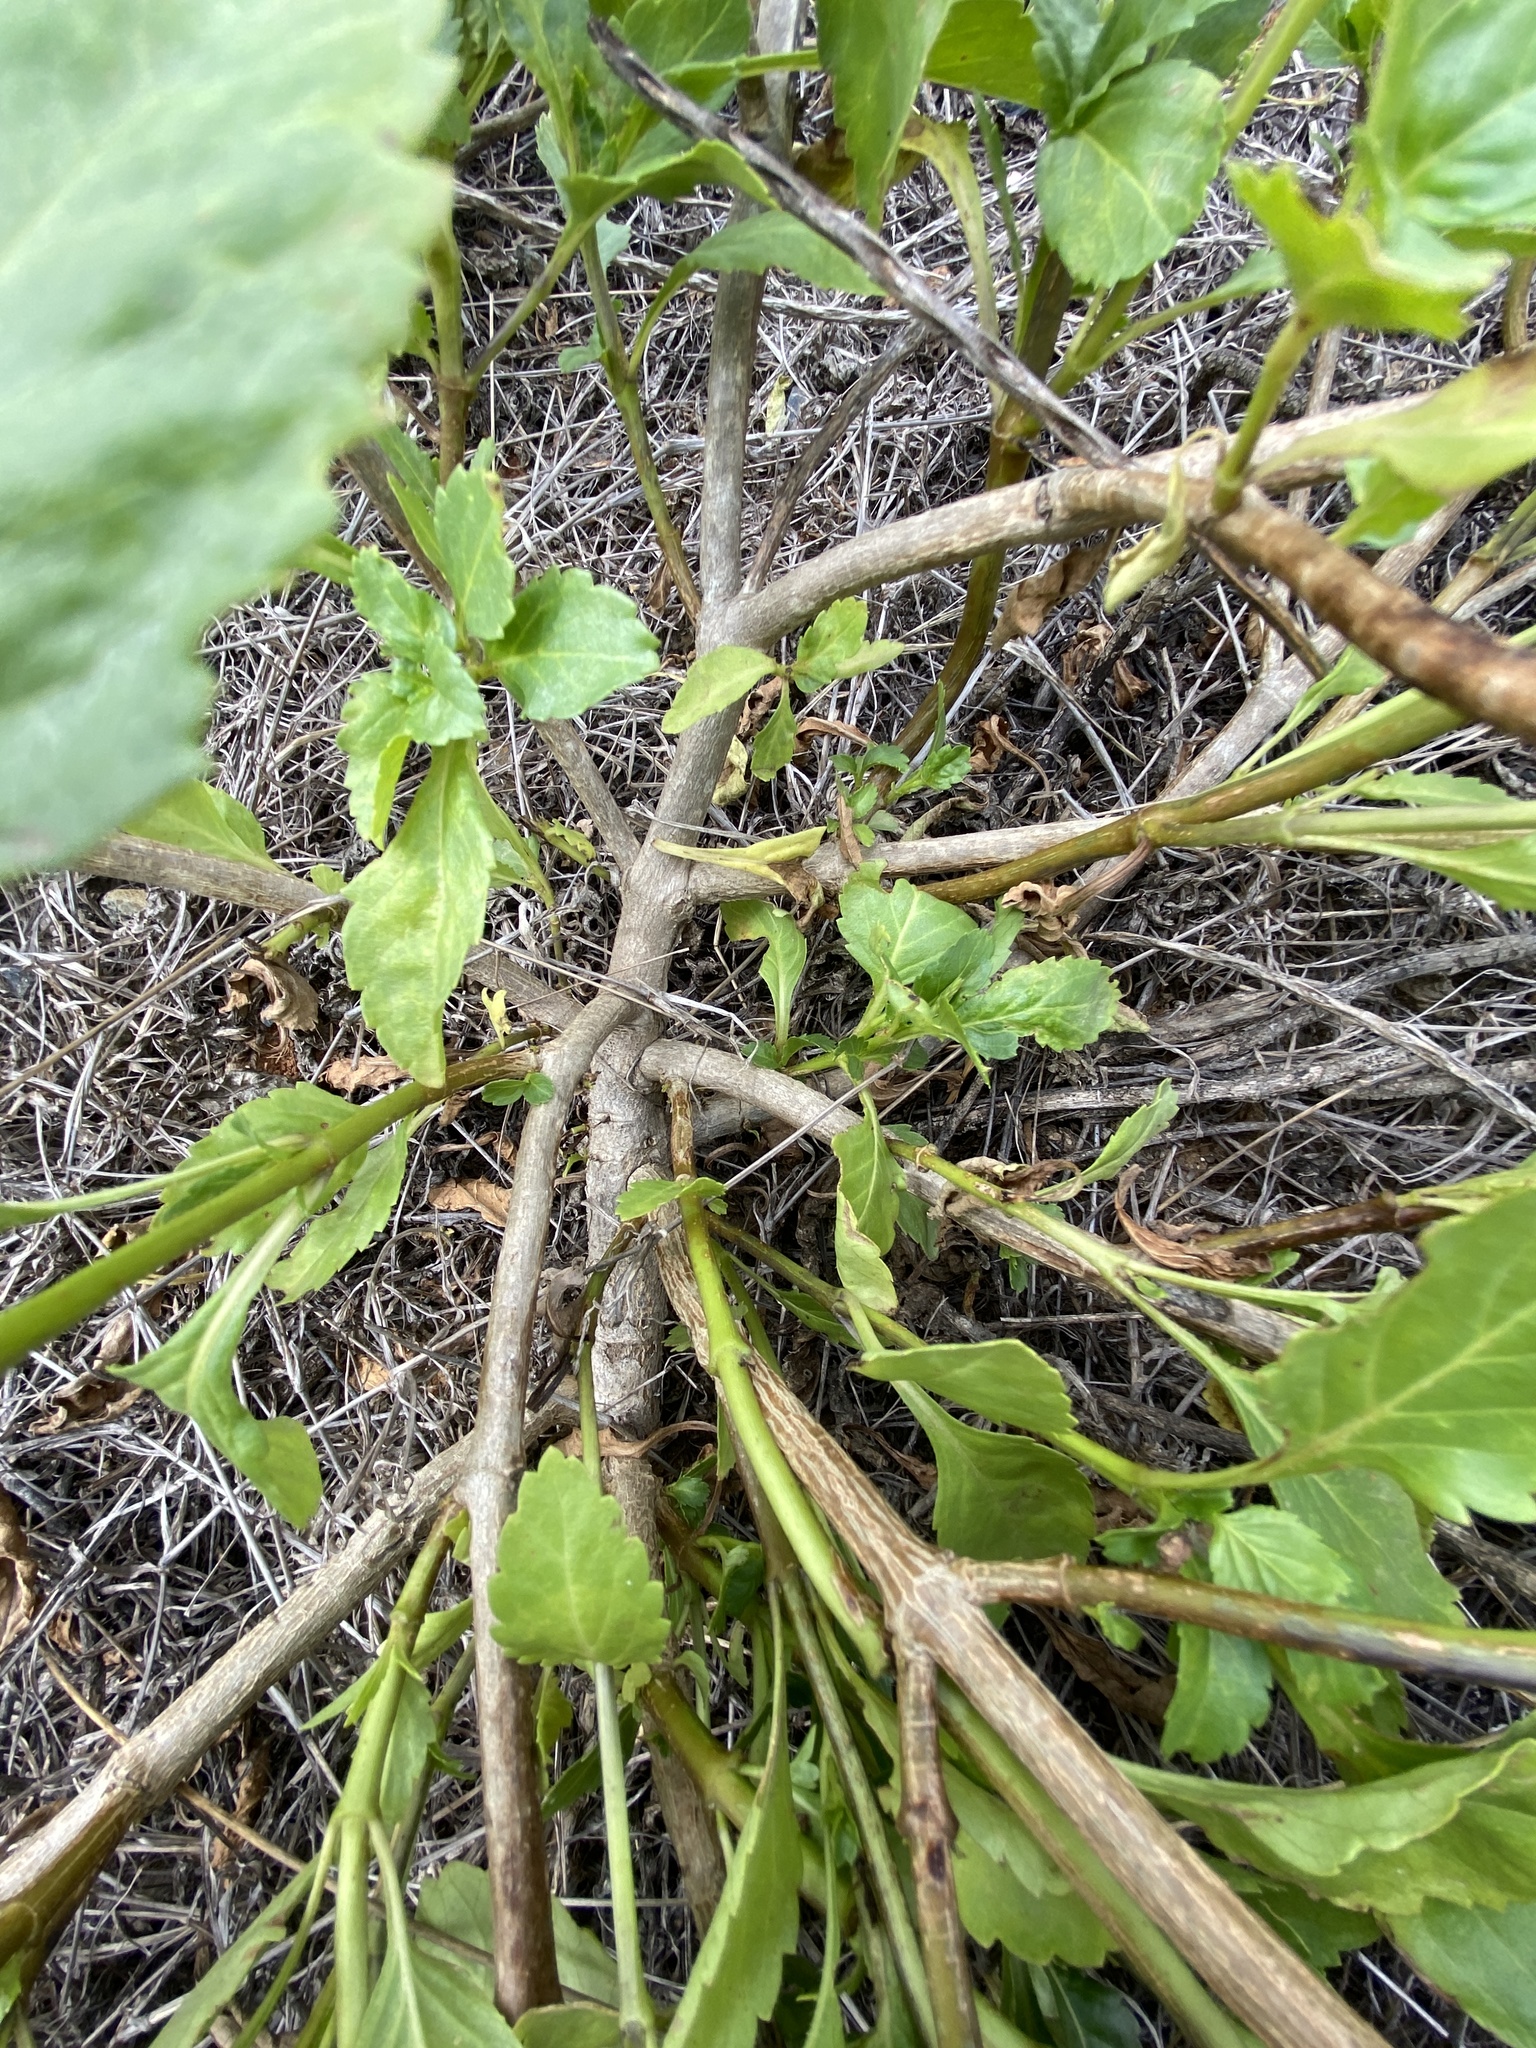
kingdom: Plantae
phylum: Tracheophyta
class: Magnoliopsida
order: Lamiales
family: Verbenaceae
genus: Stachytarpheta
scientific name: Stachytarpheta jamaicensis
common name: Light-blue snakeweed
